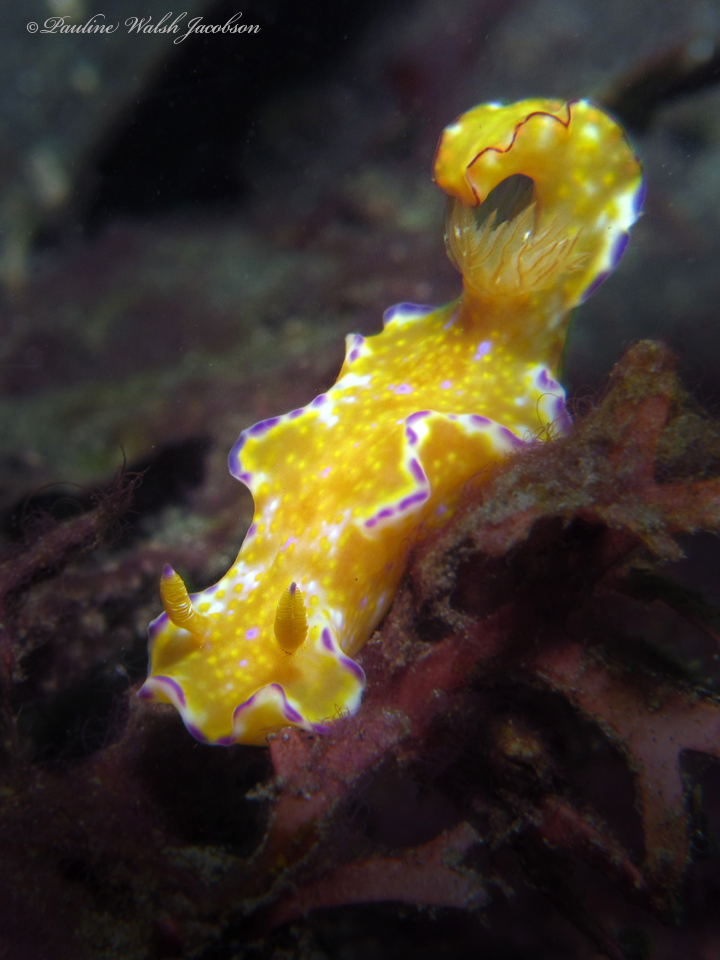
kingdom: Animalia
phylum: Mollusca
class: Gastropoda
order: Nudibranchia
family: Chromodorididae
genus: Ceratosoma
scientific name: Ceratosoma tenue
